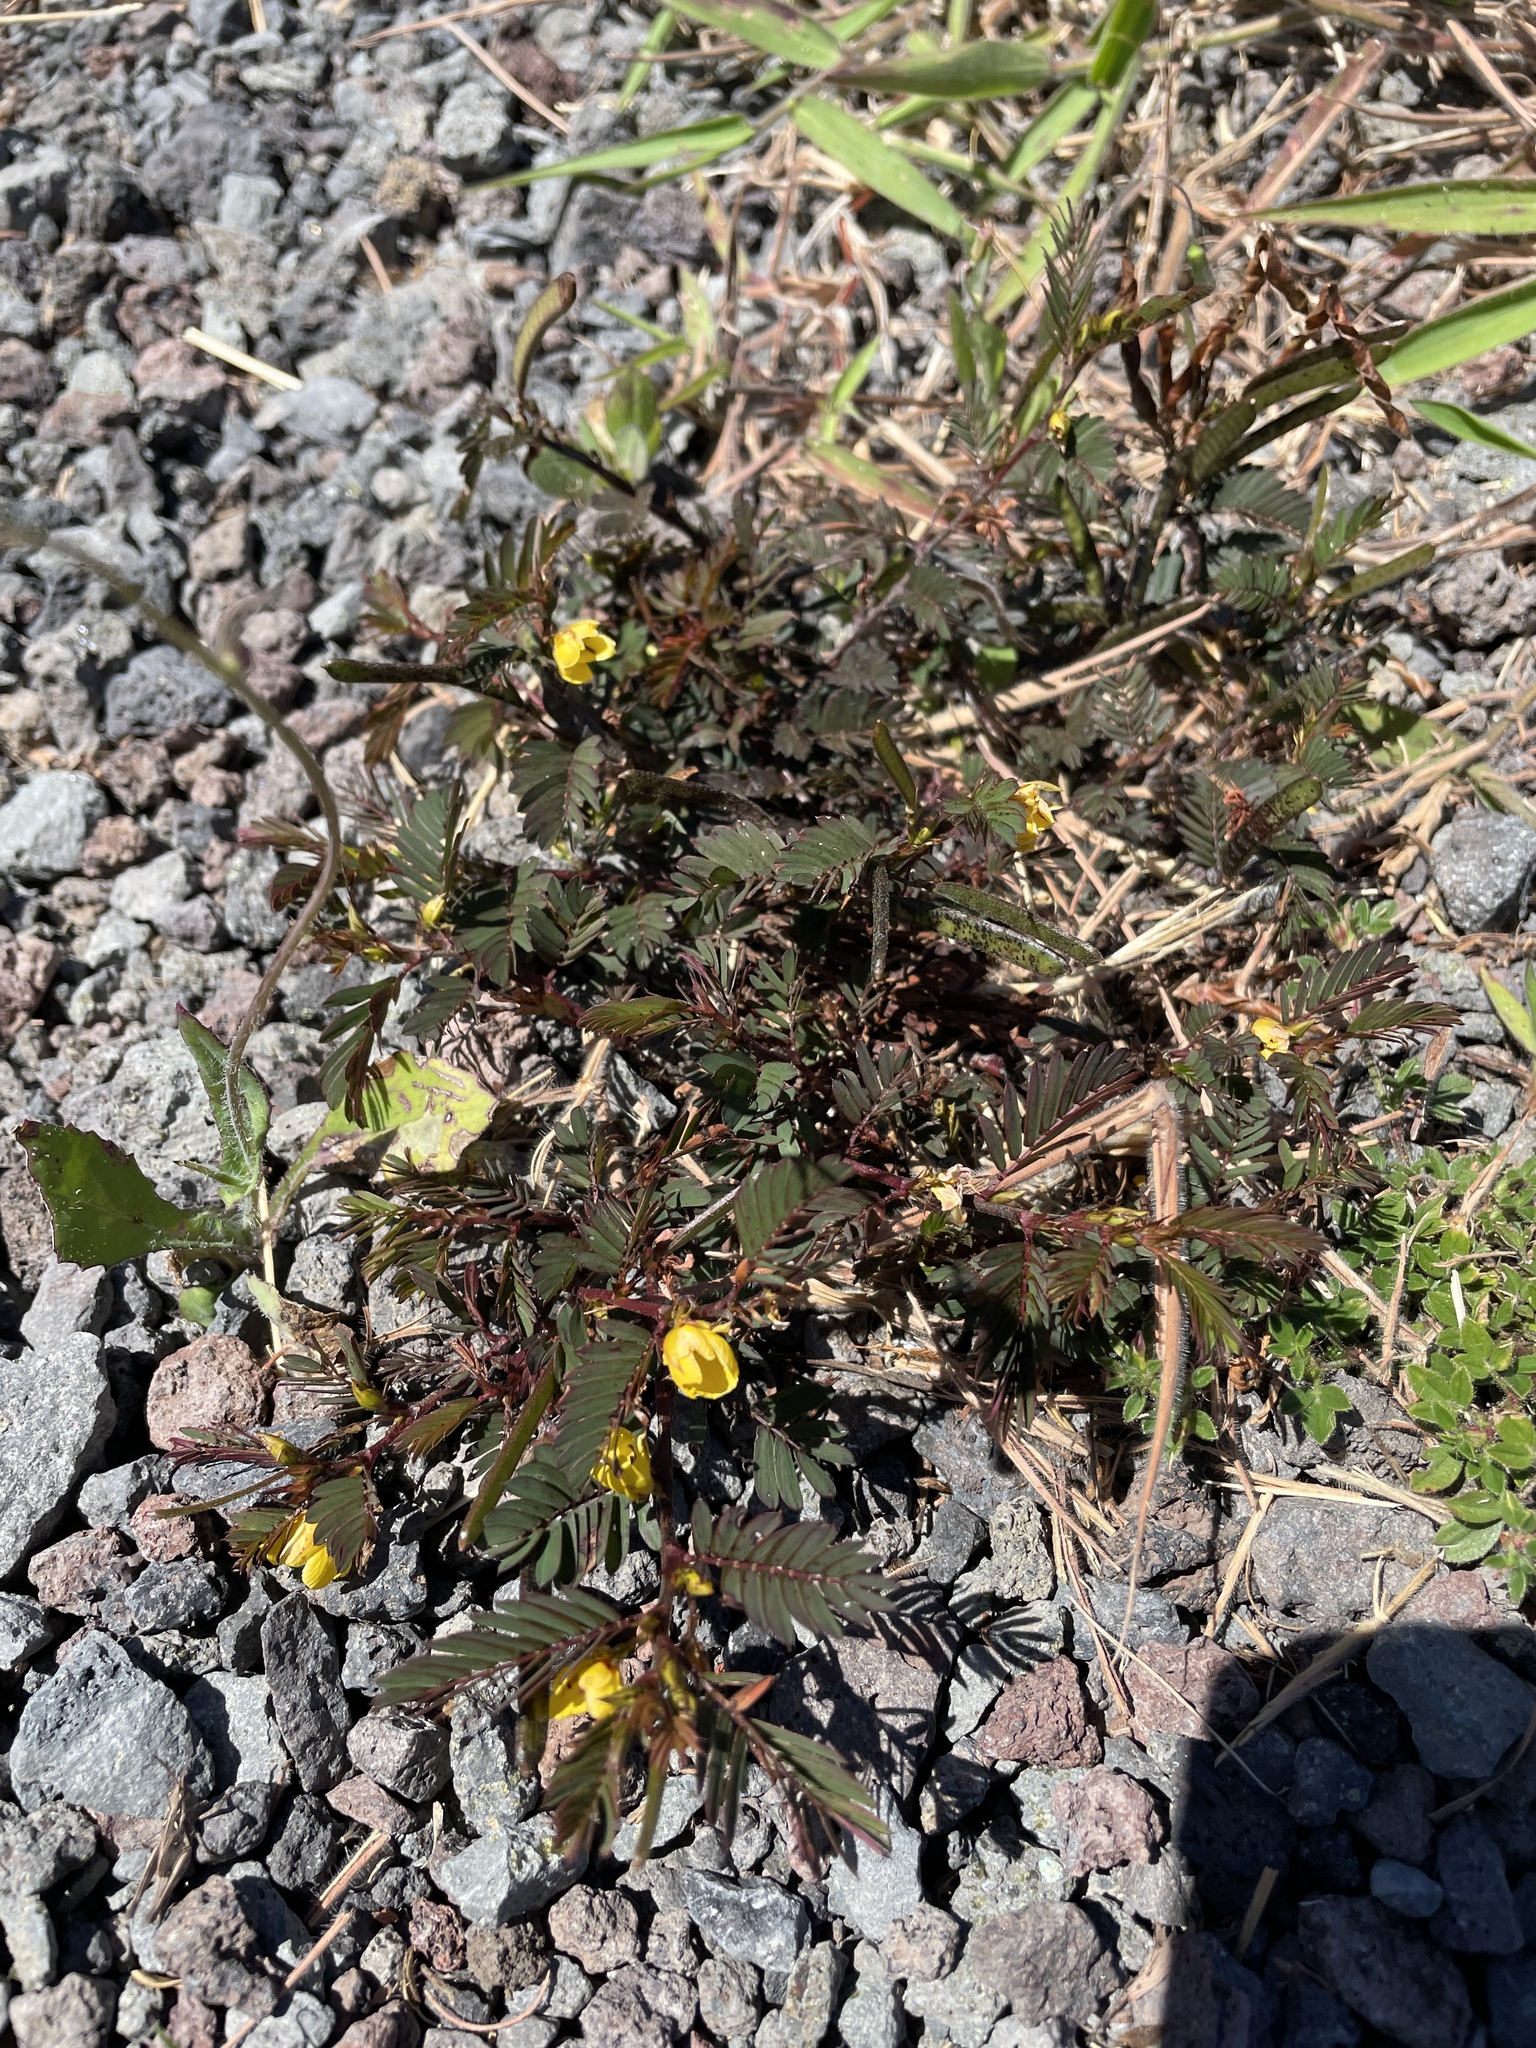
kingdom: Plantae
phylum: Tracheophyta
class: Magnoliopsida
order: Fabales
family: Fabaceae
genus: Chamaecrista
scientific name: Chamaecrista nictitans
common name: Sensitive cassia
